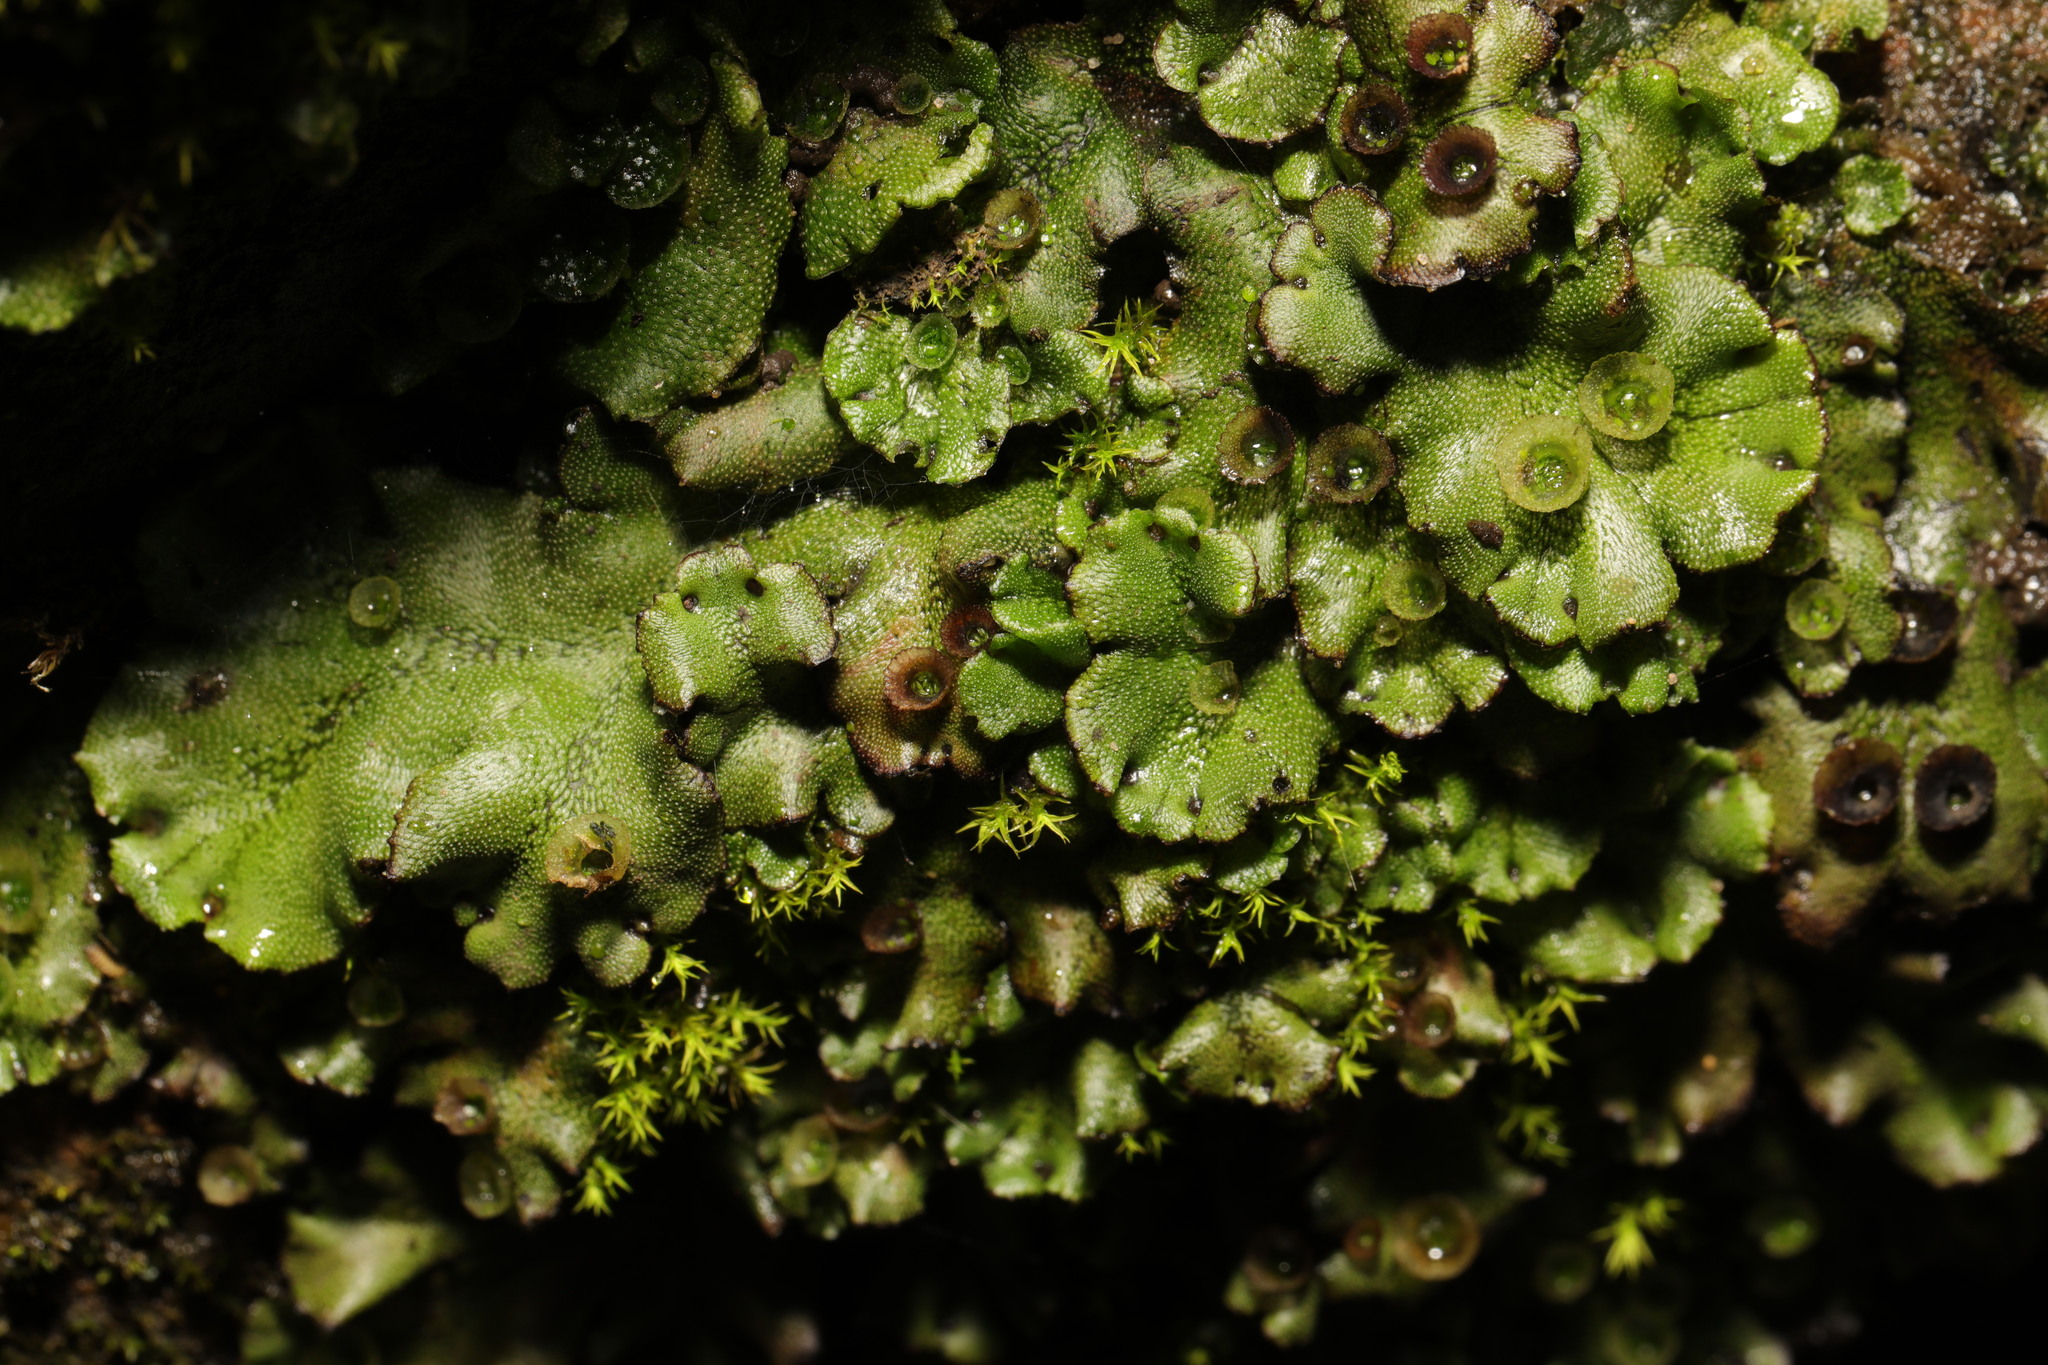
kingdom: Plantae
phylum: Marchantiophyta
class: Marchantiopsida
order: Marchantiales
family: Marchantiaceae
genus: Marchantia
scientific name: Marchantia polymorpha
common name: Common liverwort
